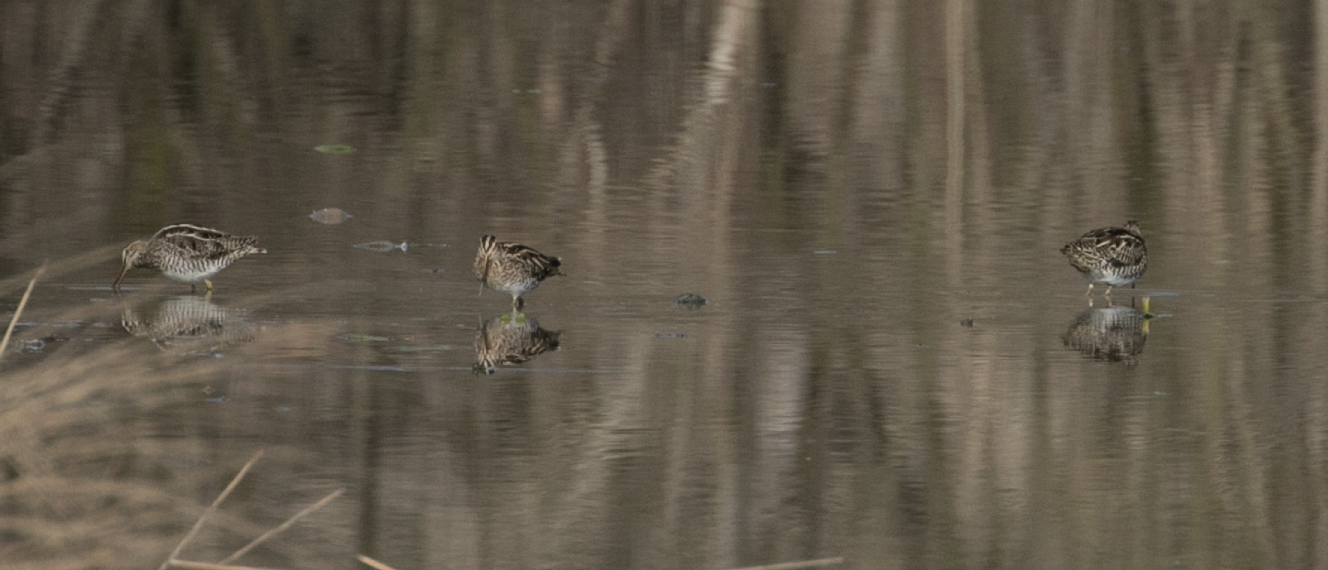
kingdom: Animalia
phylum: Chordata
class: Aves
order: Charadriiformes
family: Scolopacidae
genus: Gallinago
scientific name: Gallinago gallinago
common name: Common snipe
